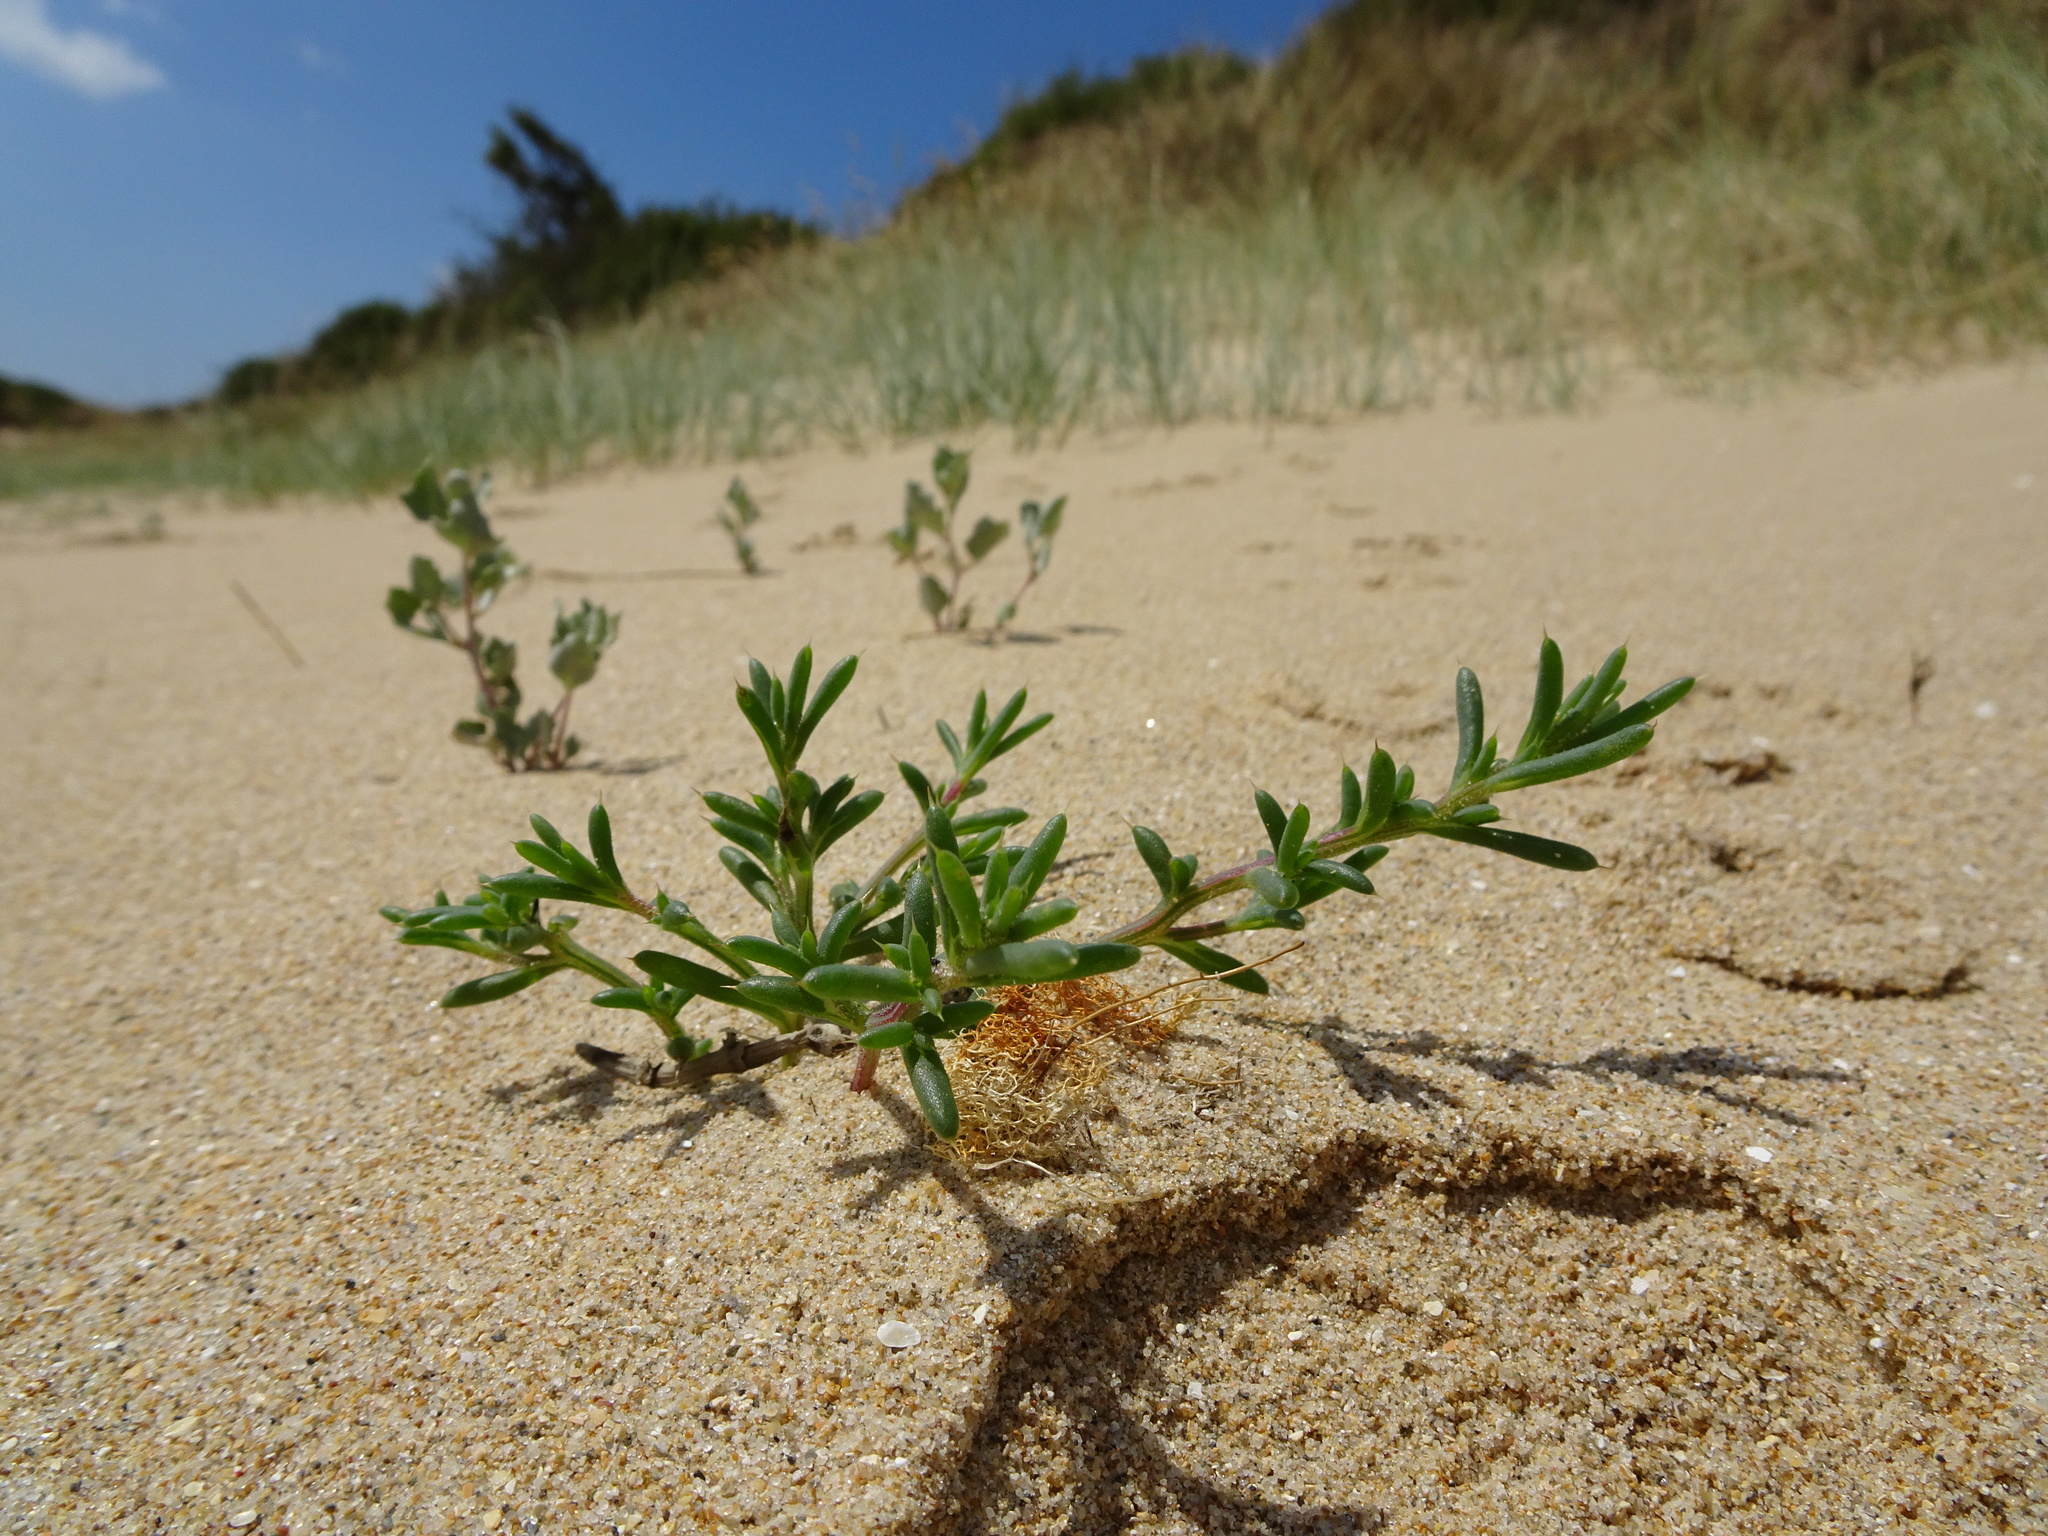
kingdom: Plantae
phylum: Tracheophyta
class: Magnoliopsida
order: Caryophyllales
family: Amaranthaceae
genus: Salsola
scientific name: Salsola kali
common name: Saltwort
